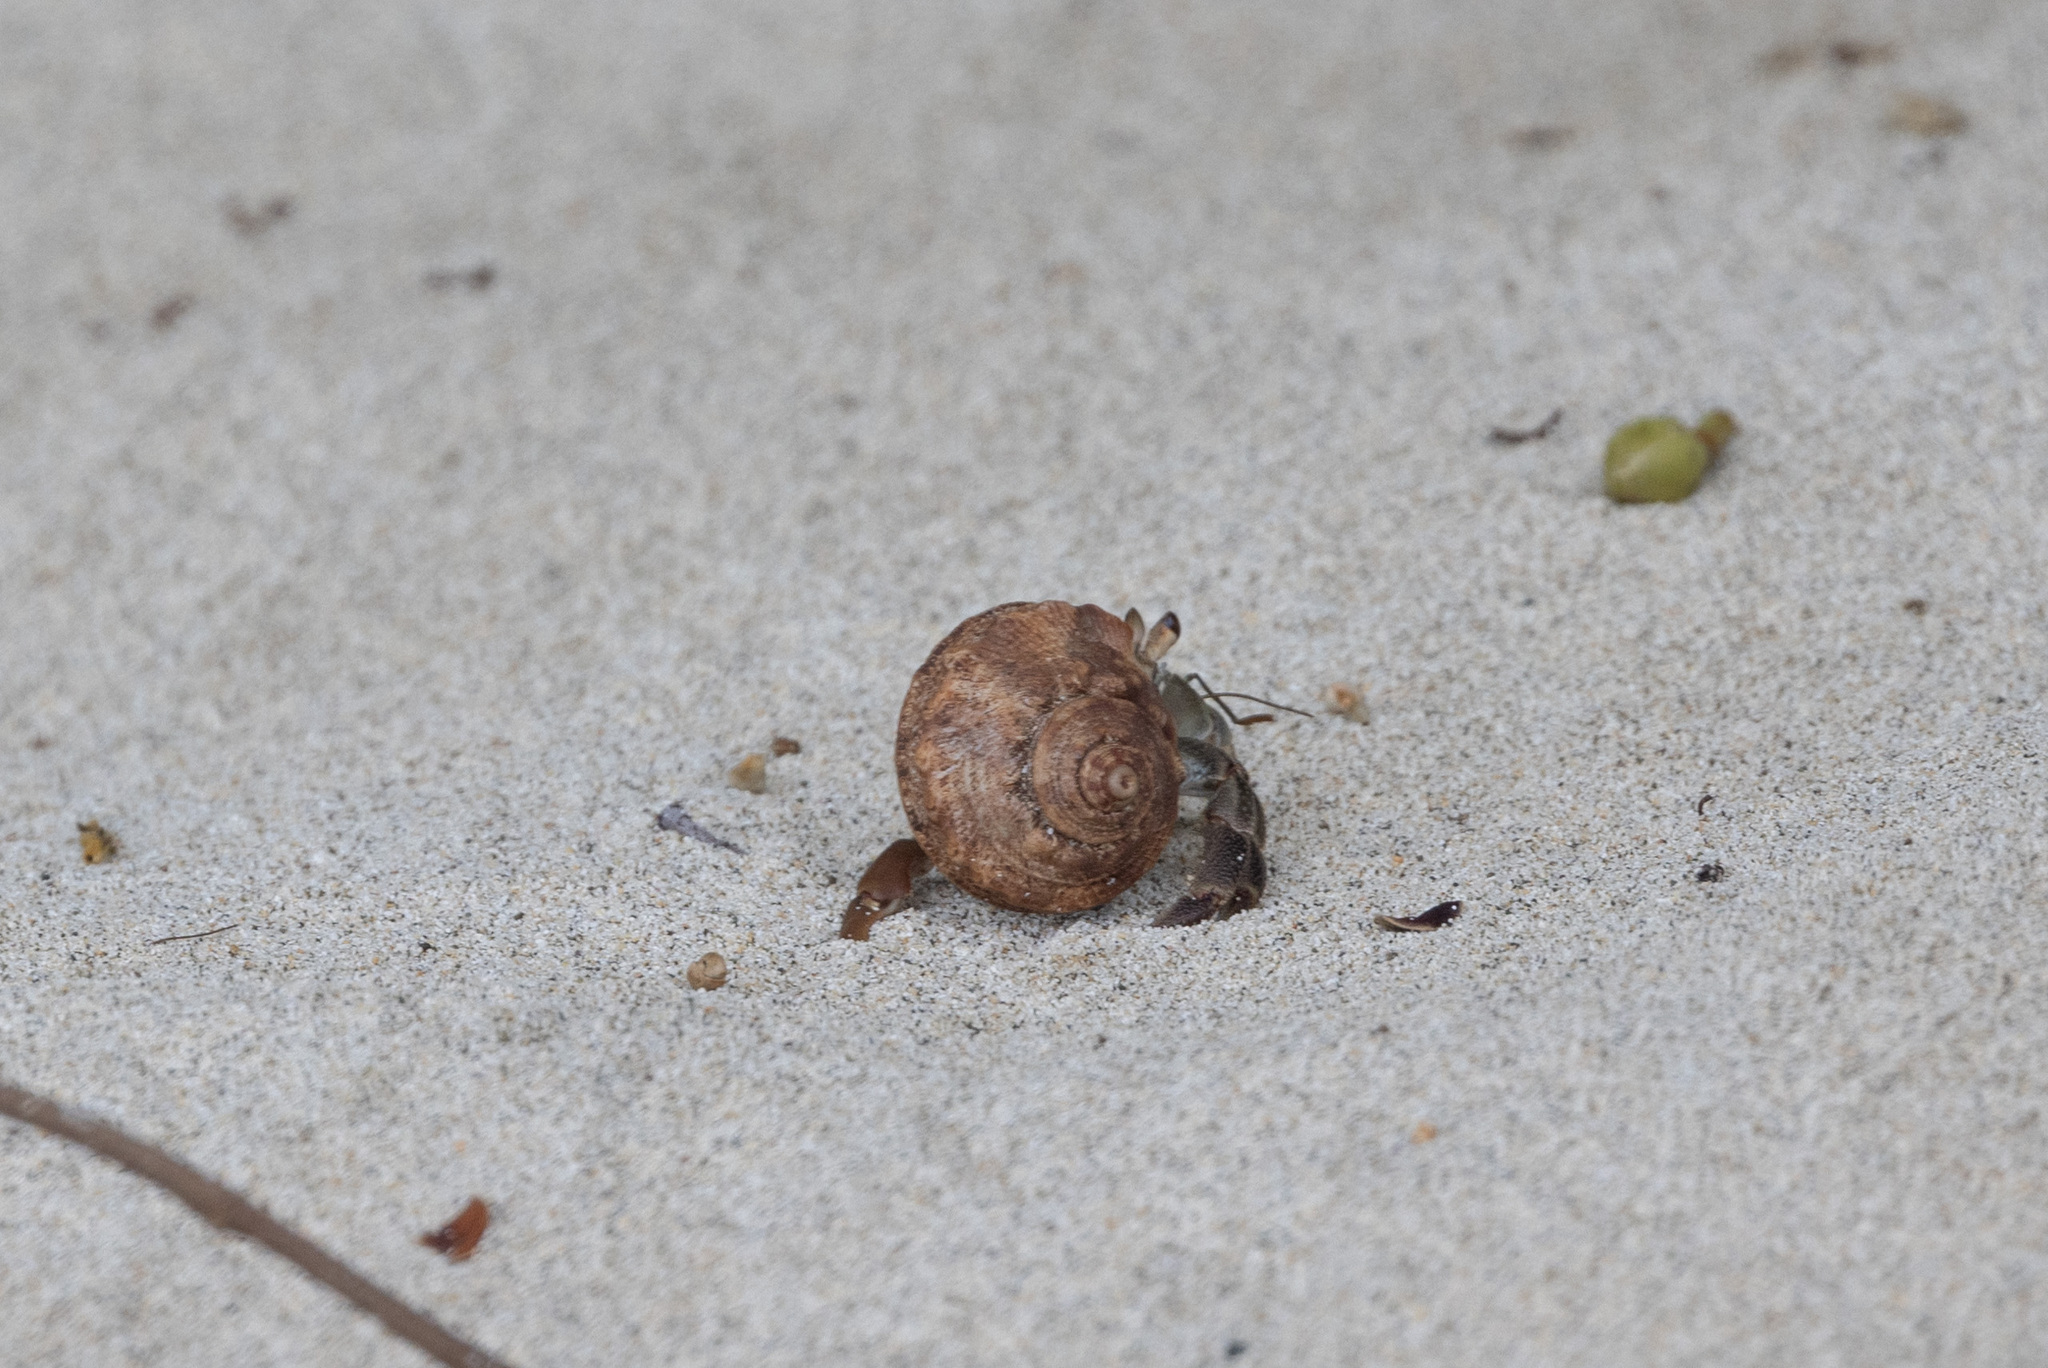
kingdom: Animalia
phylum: Arthropoda
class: Malacostraca
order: Decapoda
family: Coenobitidae
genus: Coenobita
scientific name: Coenobita compressus
